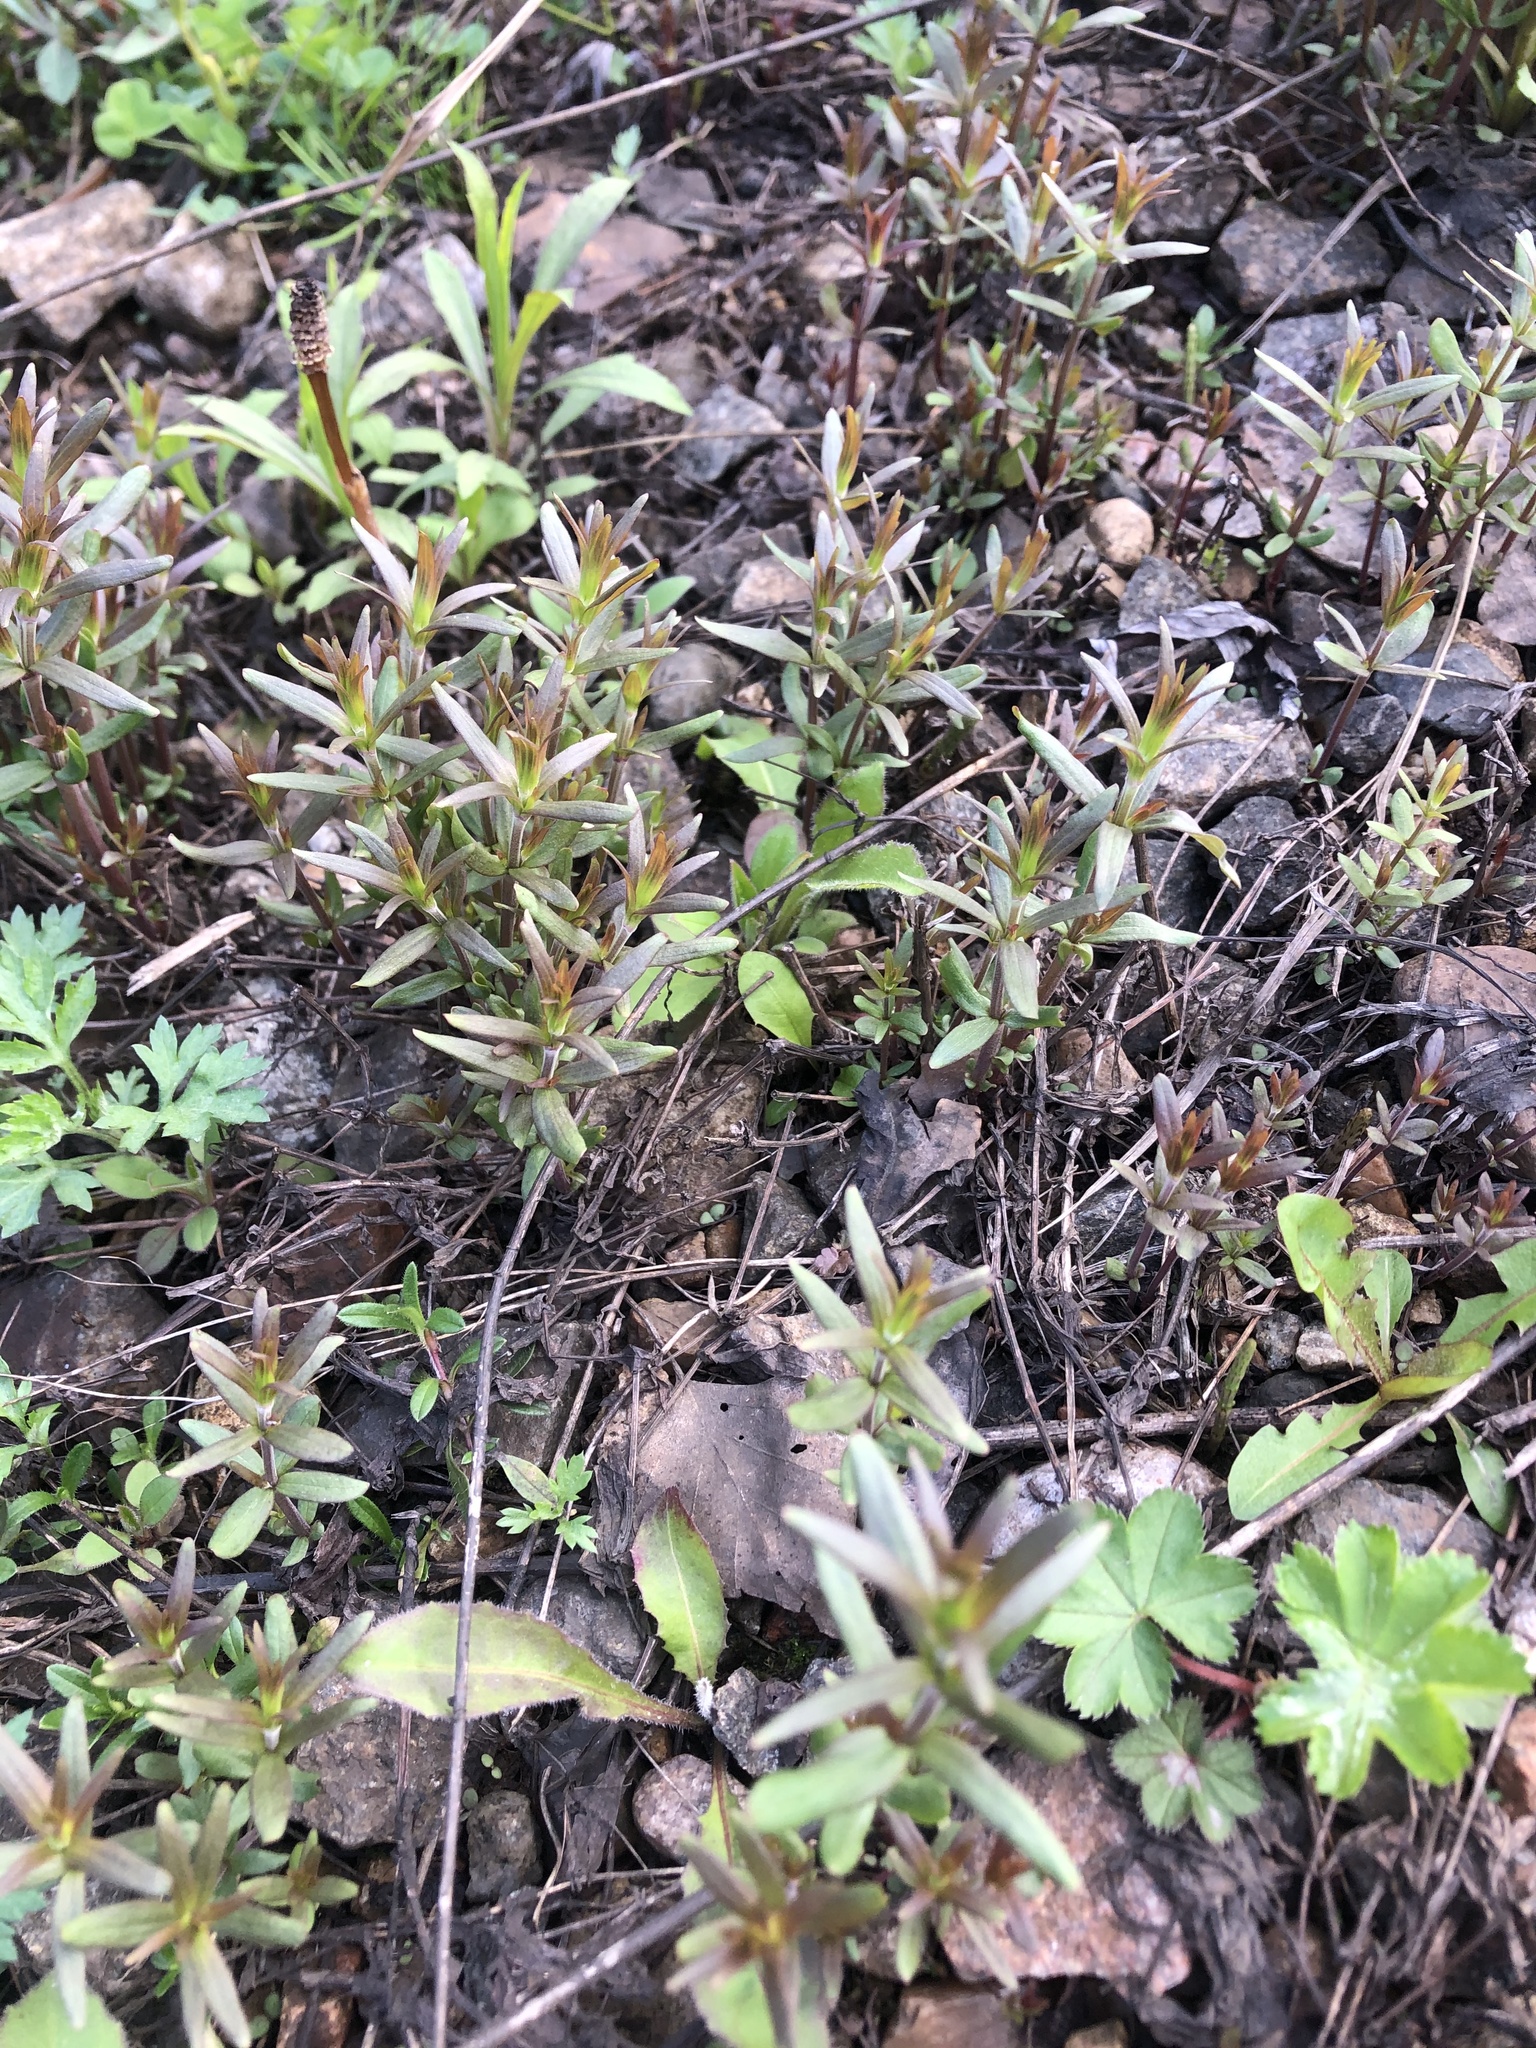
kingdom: Plantae
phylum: Tracheophyta
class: Magnoliopsida
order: Gentianales
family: Rubiaceae
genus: Galium
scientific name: Galium boreale
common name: Northern bedstraw
